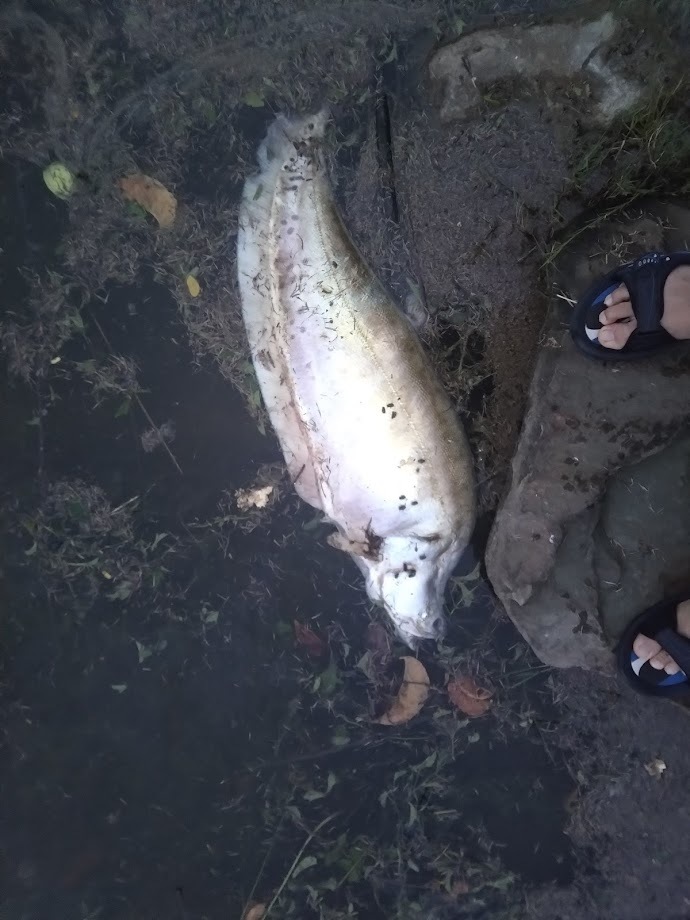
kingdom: Animalia
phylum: Chordata
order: Osteoglossiformes
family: Notopteridae
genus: Chitala
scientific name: Chitala ornata
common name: Clown knifefish
